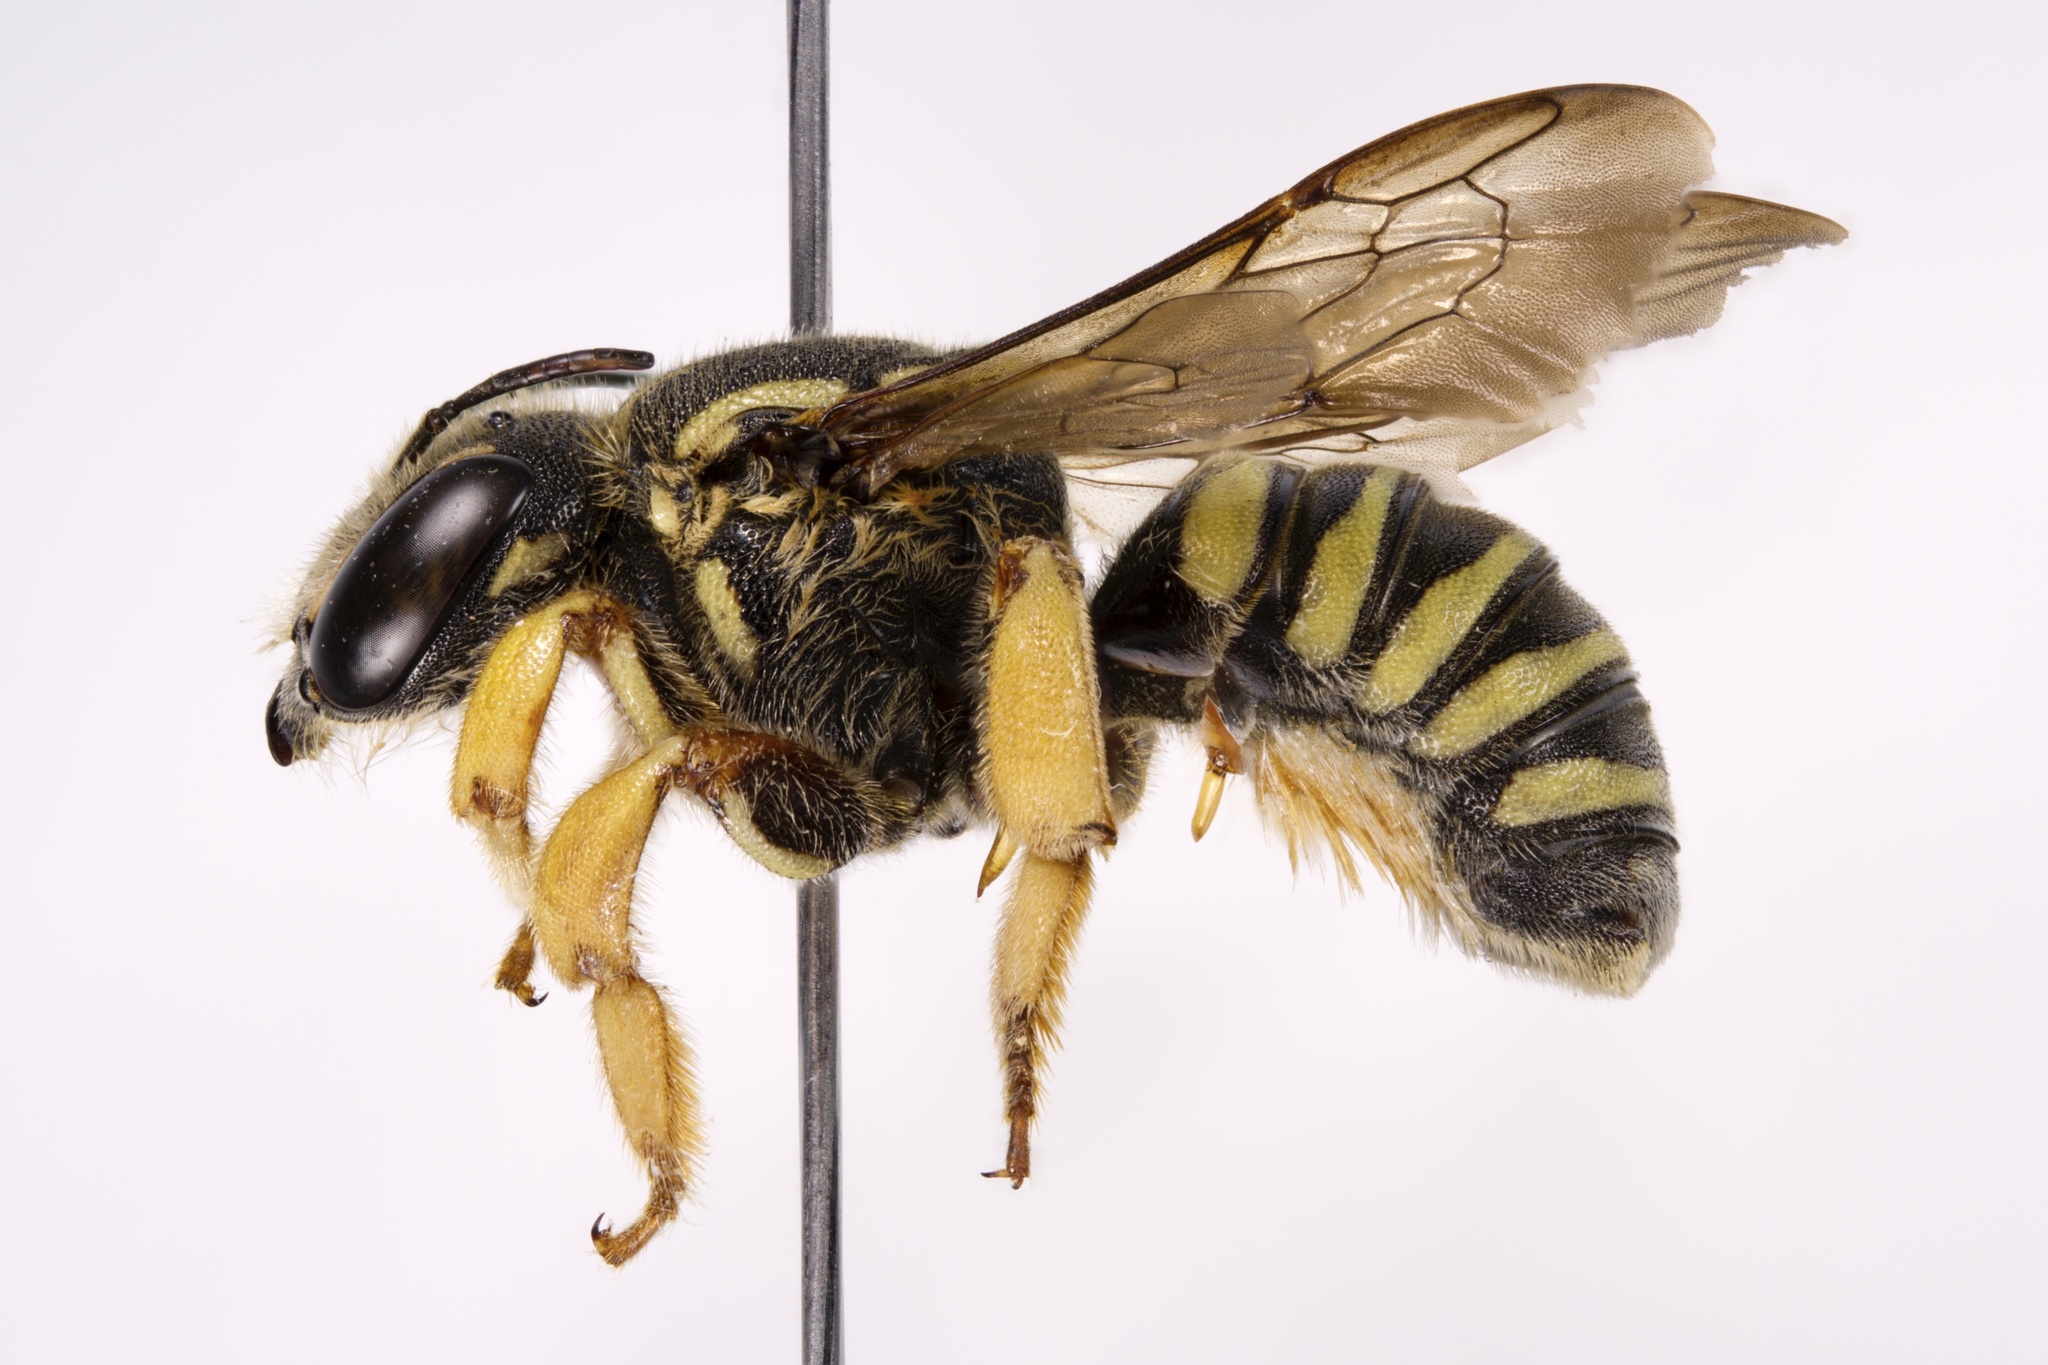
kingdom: Animalia
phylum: Arthropoda
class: Insecta
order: Hymenoptera
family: Megachilidae
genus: Trachusa
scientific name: Trachusa dorsalis
